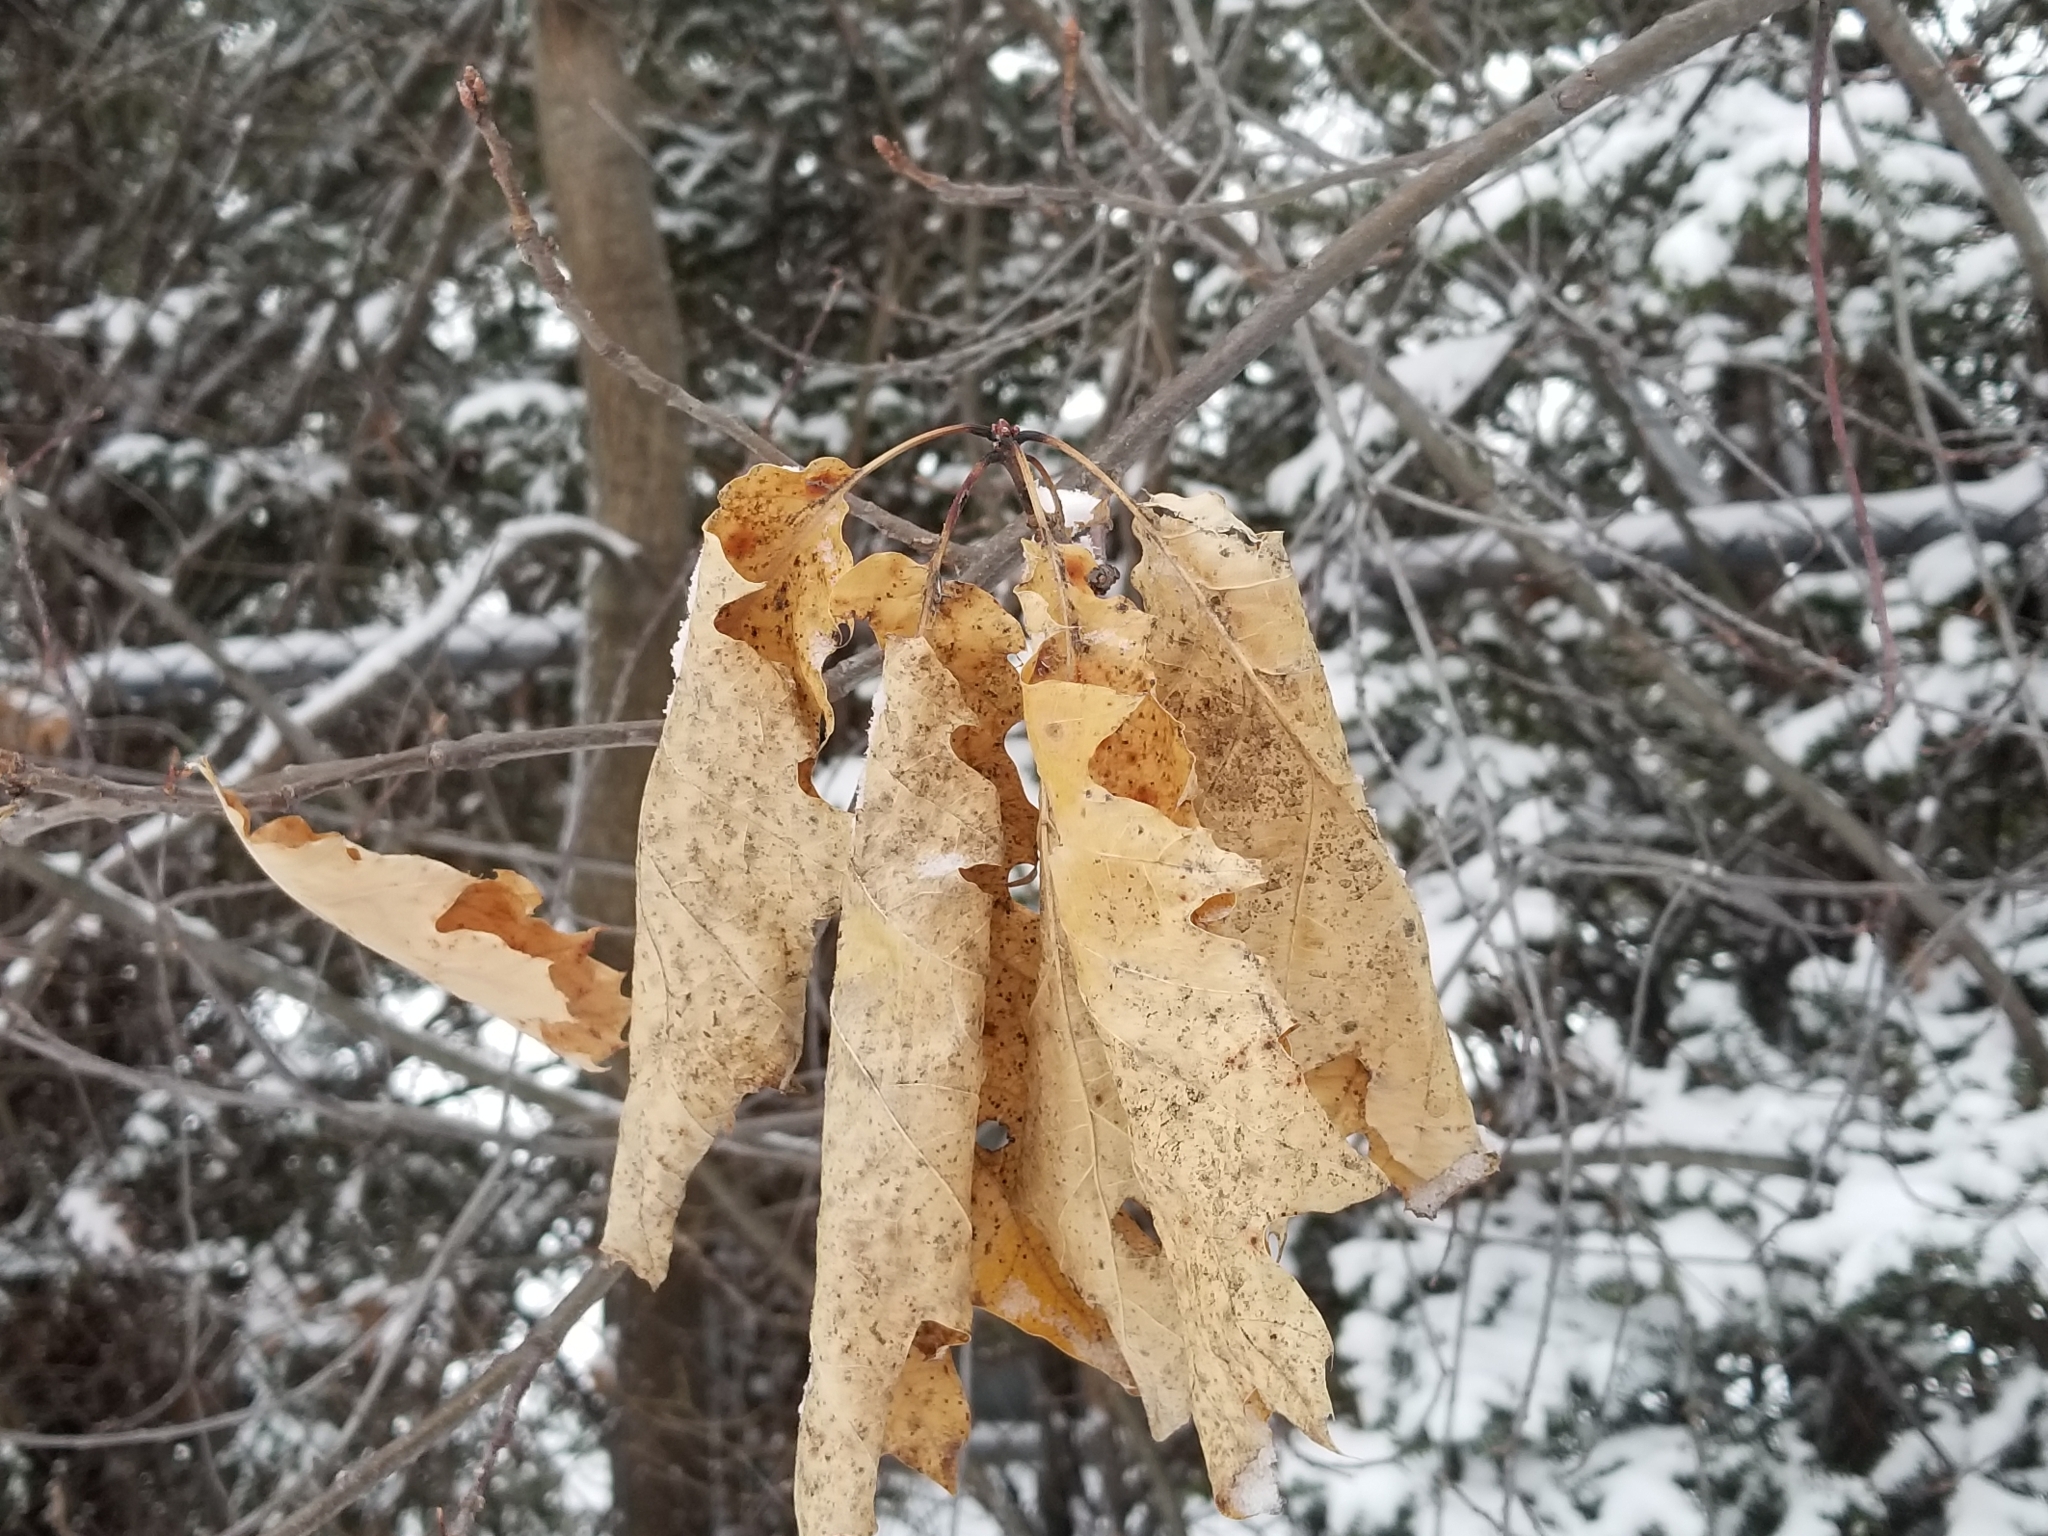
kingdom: Plantae
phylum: Tracheophyta
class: Magnoliopsida
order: Fagales
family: Fagaceae
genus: Quercus
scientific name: Quercus rubra
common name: Red oak
